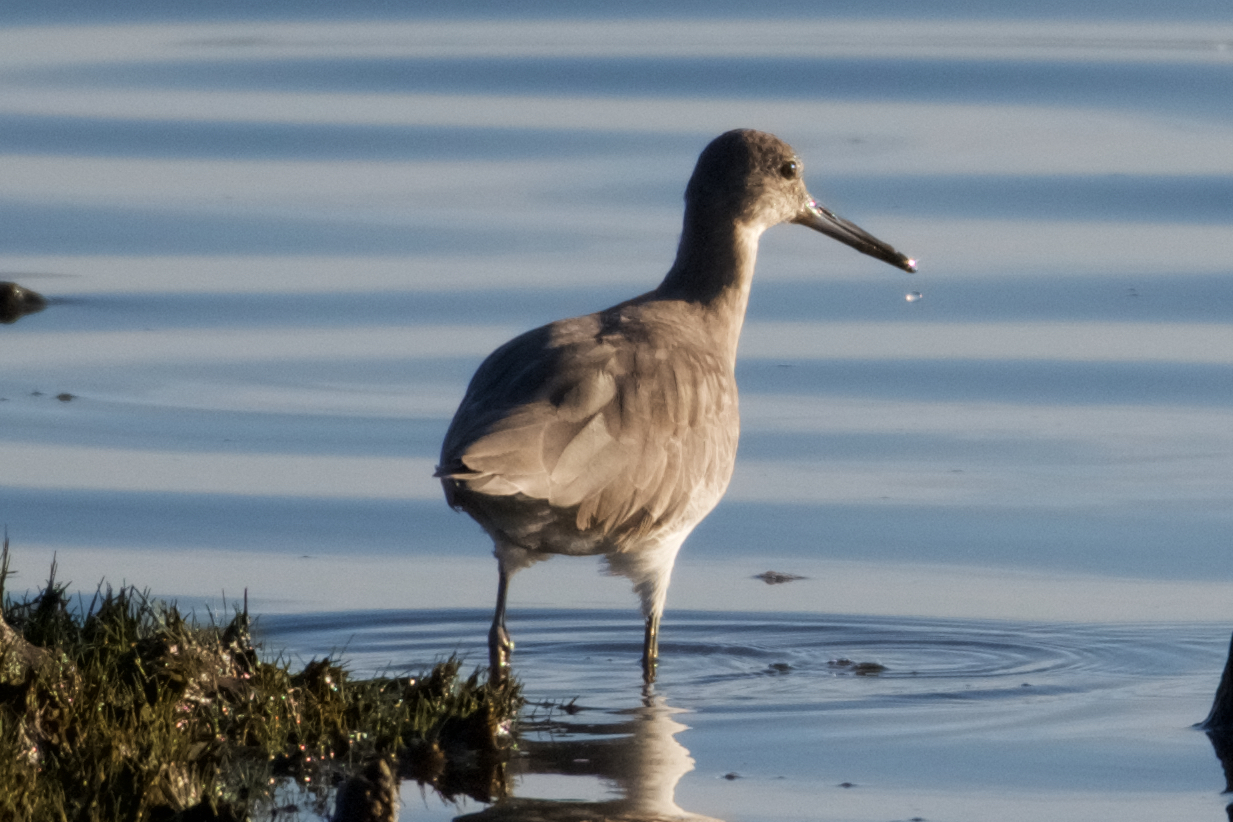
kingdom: Animalia
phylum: Chordata
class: Aves
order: Charadriiformes
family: Scolopacidae
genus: Tringa
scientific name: Tringa semipalmata
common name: Willet
